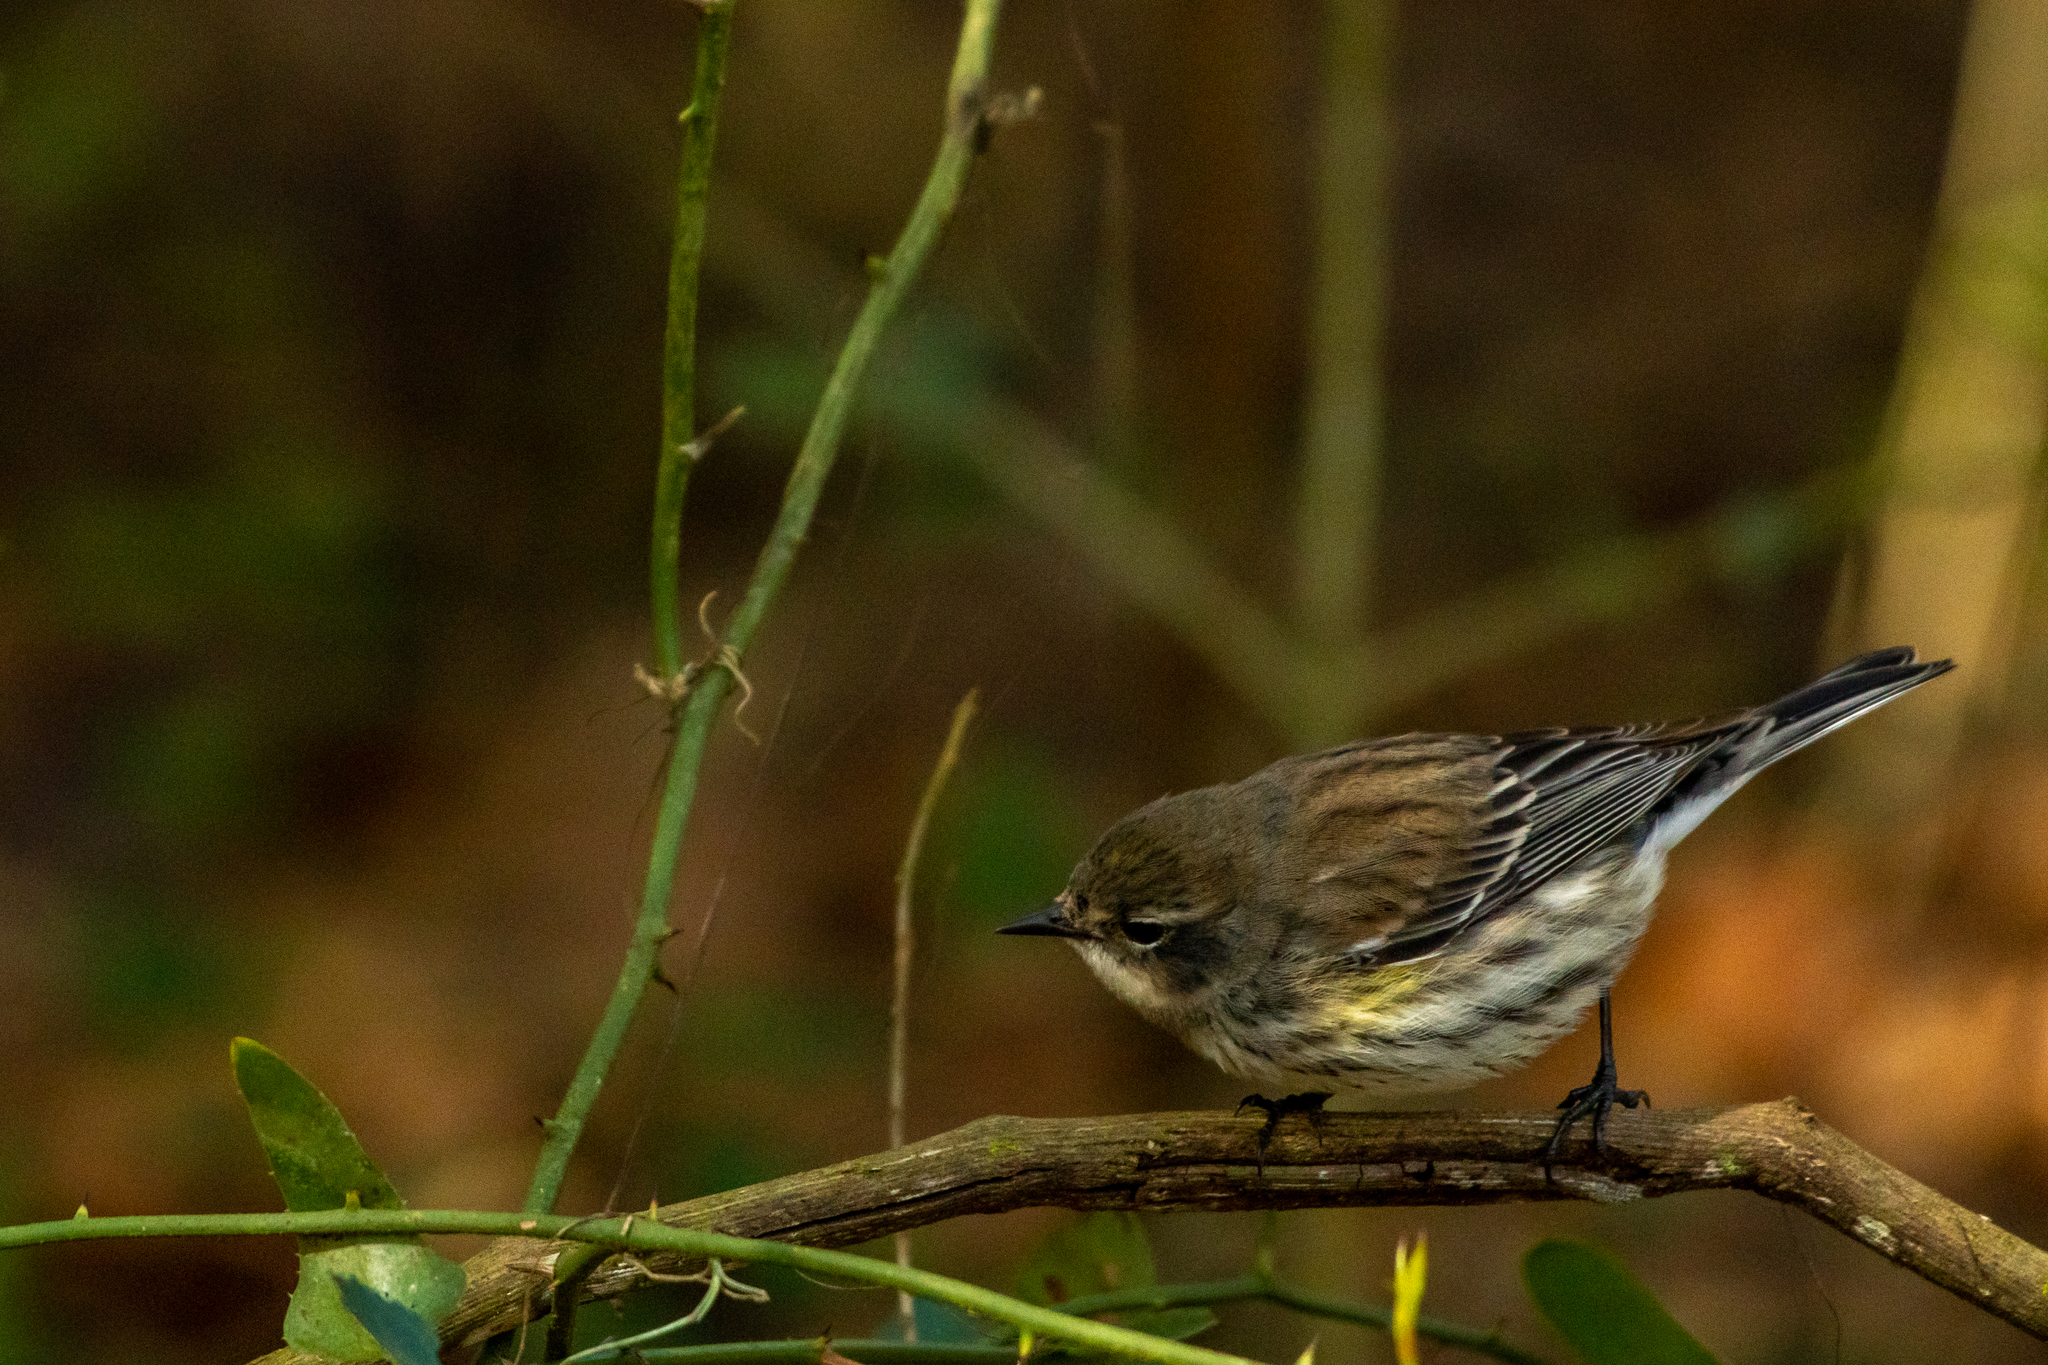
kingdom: Animalia
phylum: Chordata
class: Aves
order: Passeriformes
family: Parulidae
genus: Setophaga
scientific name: Setophaga coronata
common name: Myrtle warbler
